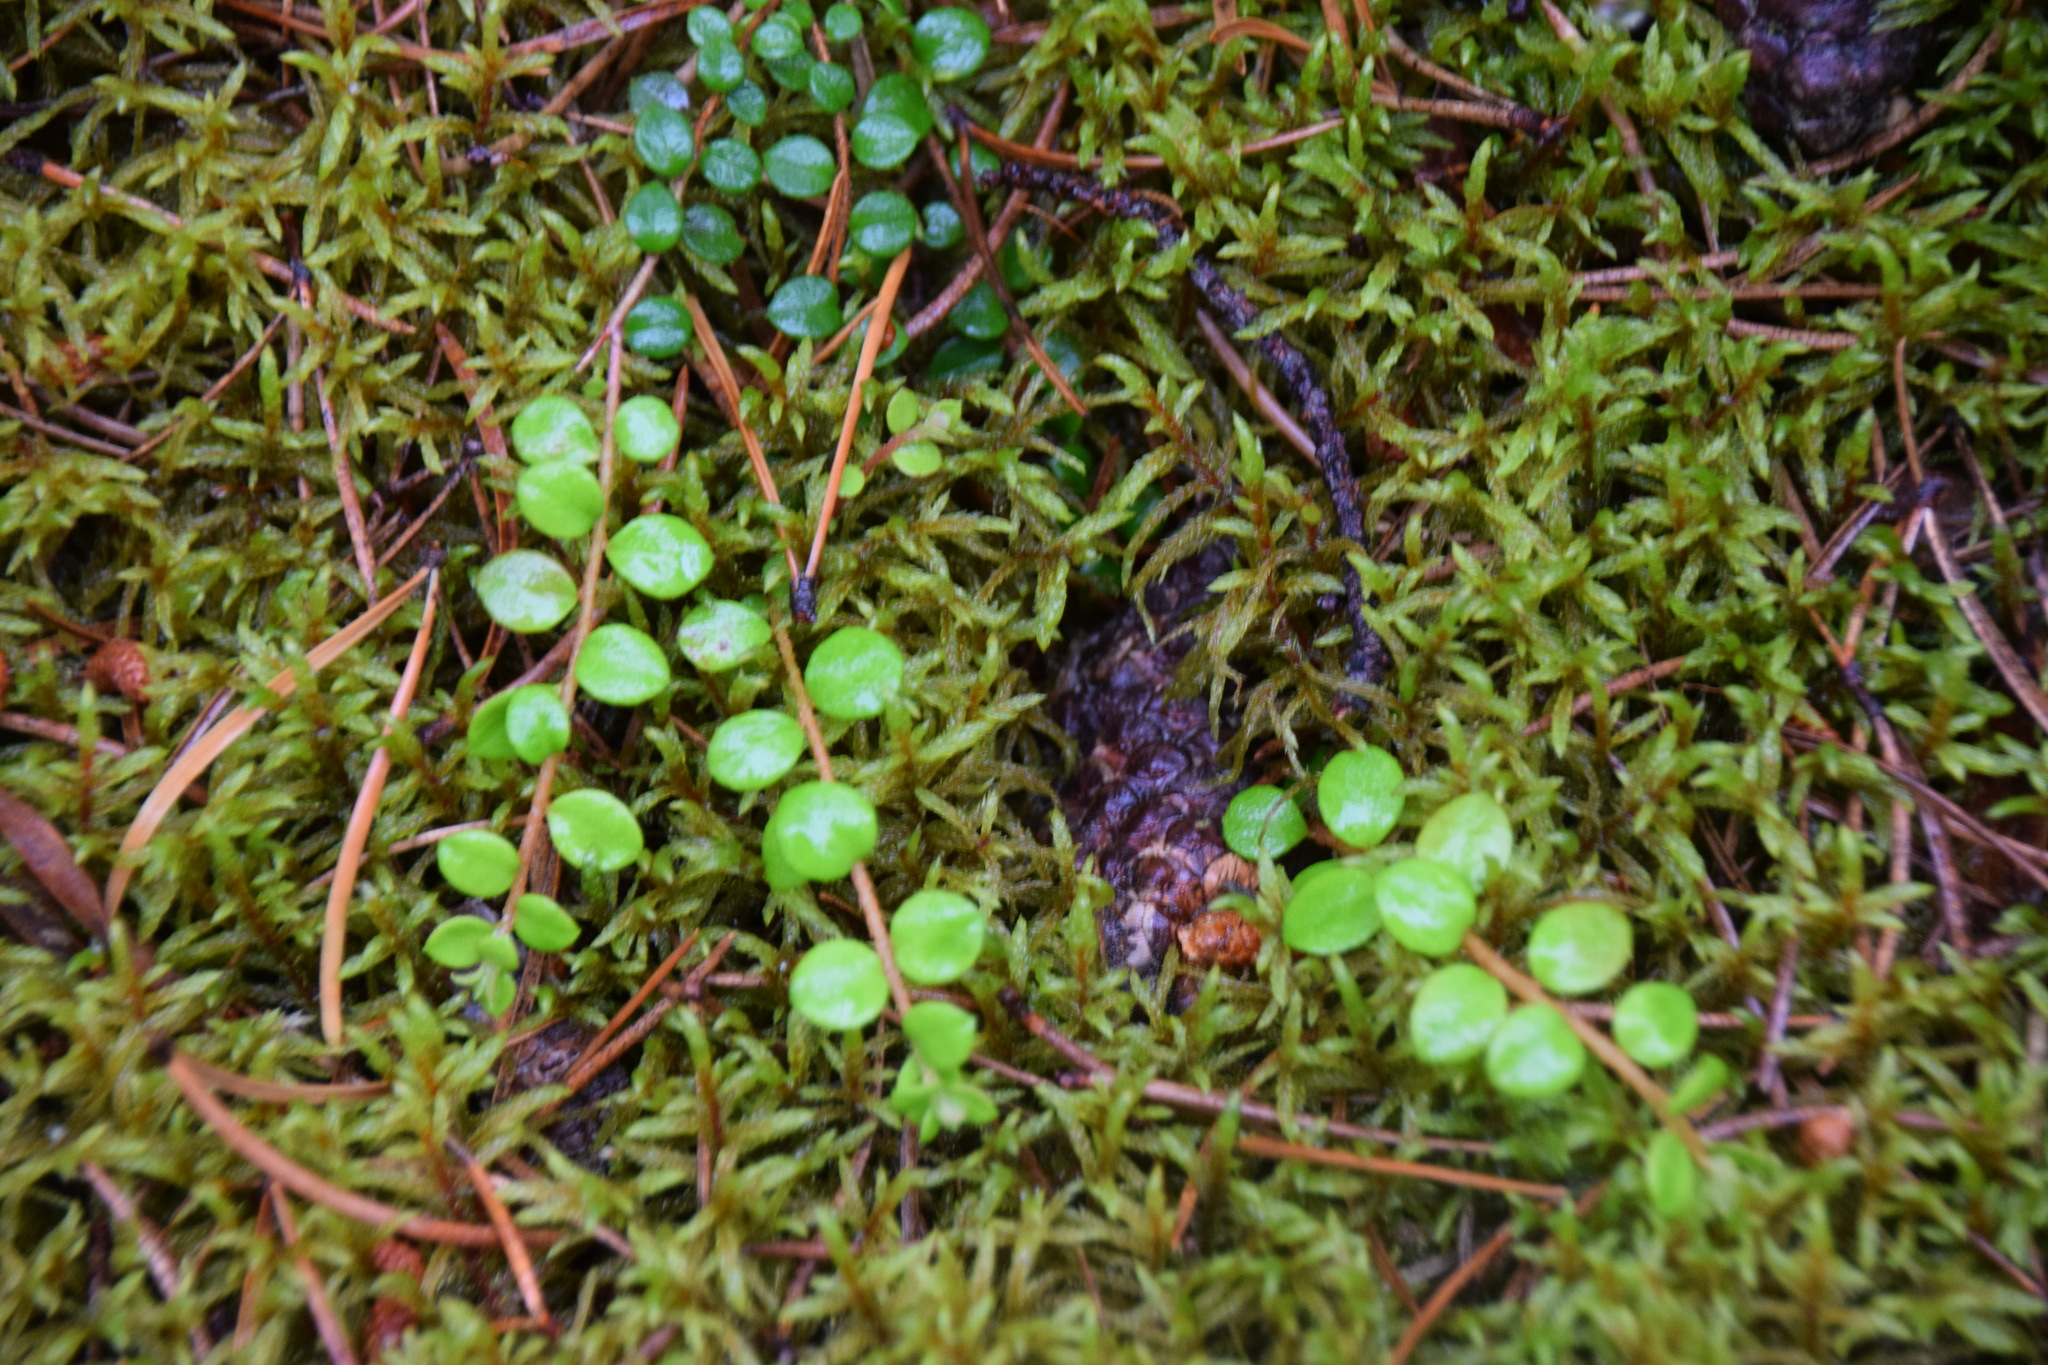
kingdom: Plantae
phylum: Tracheophyta
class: Magnoliopsida
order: Ericales
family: Ericaceae
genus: Gaultheria
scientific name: Gaultheria hispidula
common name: Cancer wintergreen
